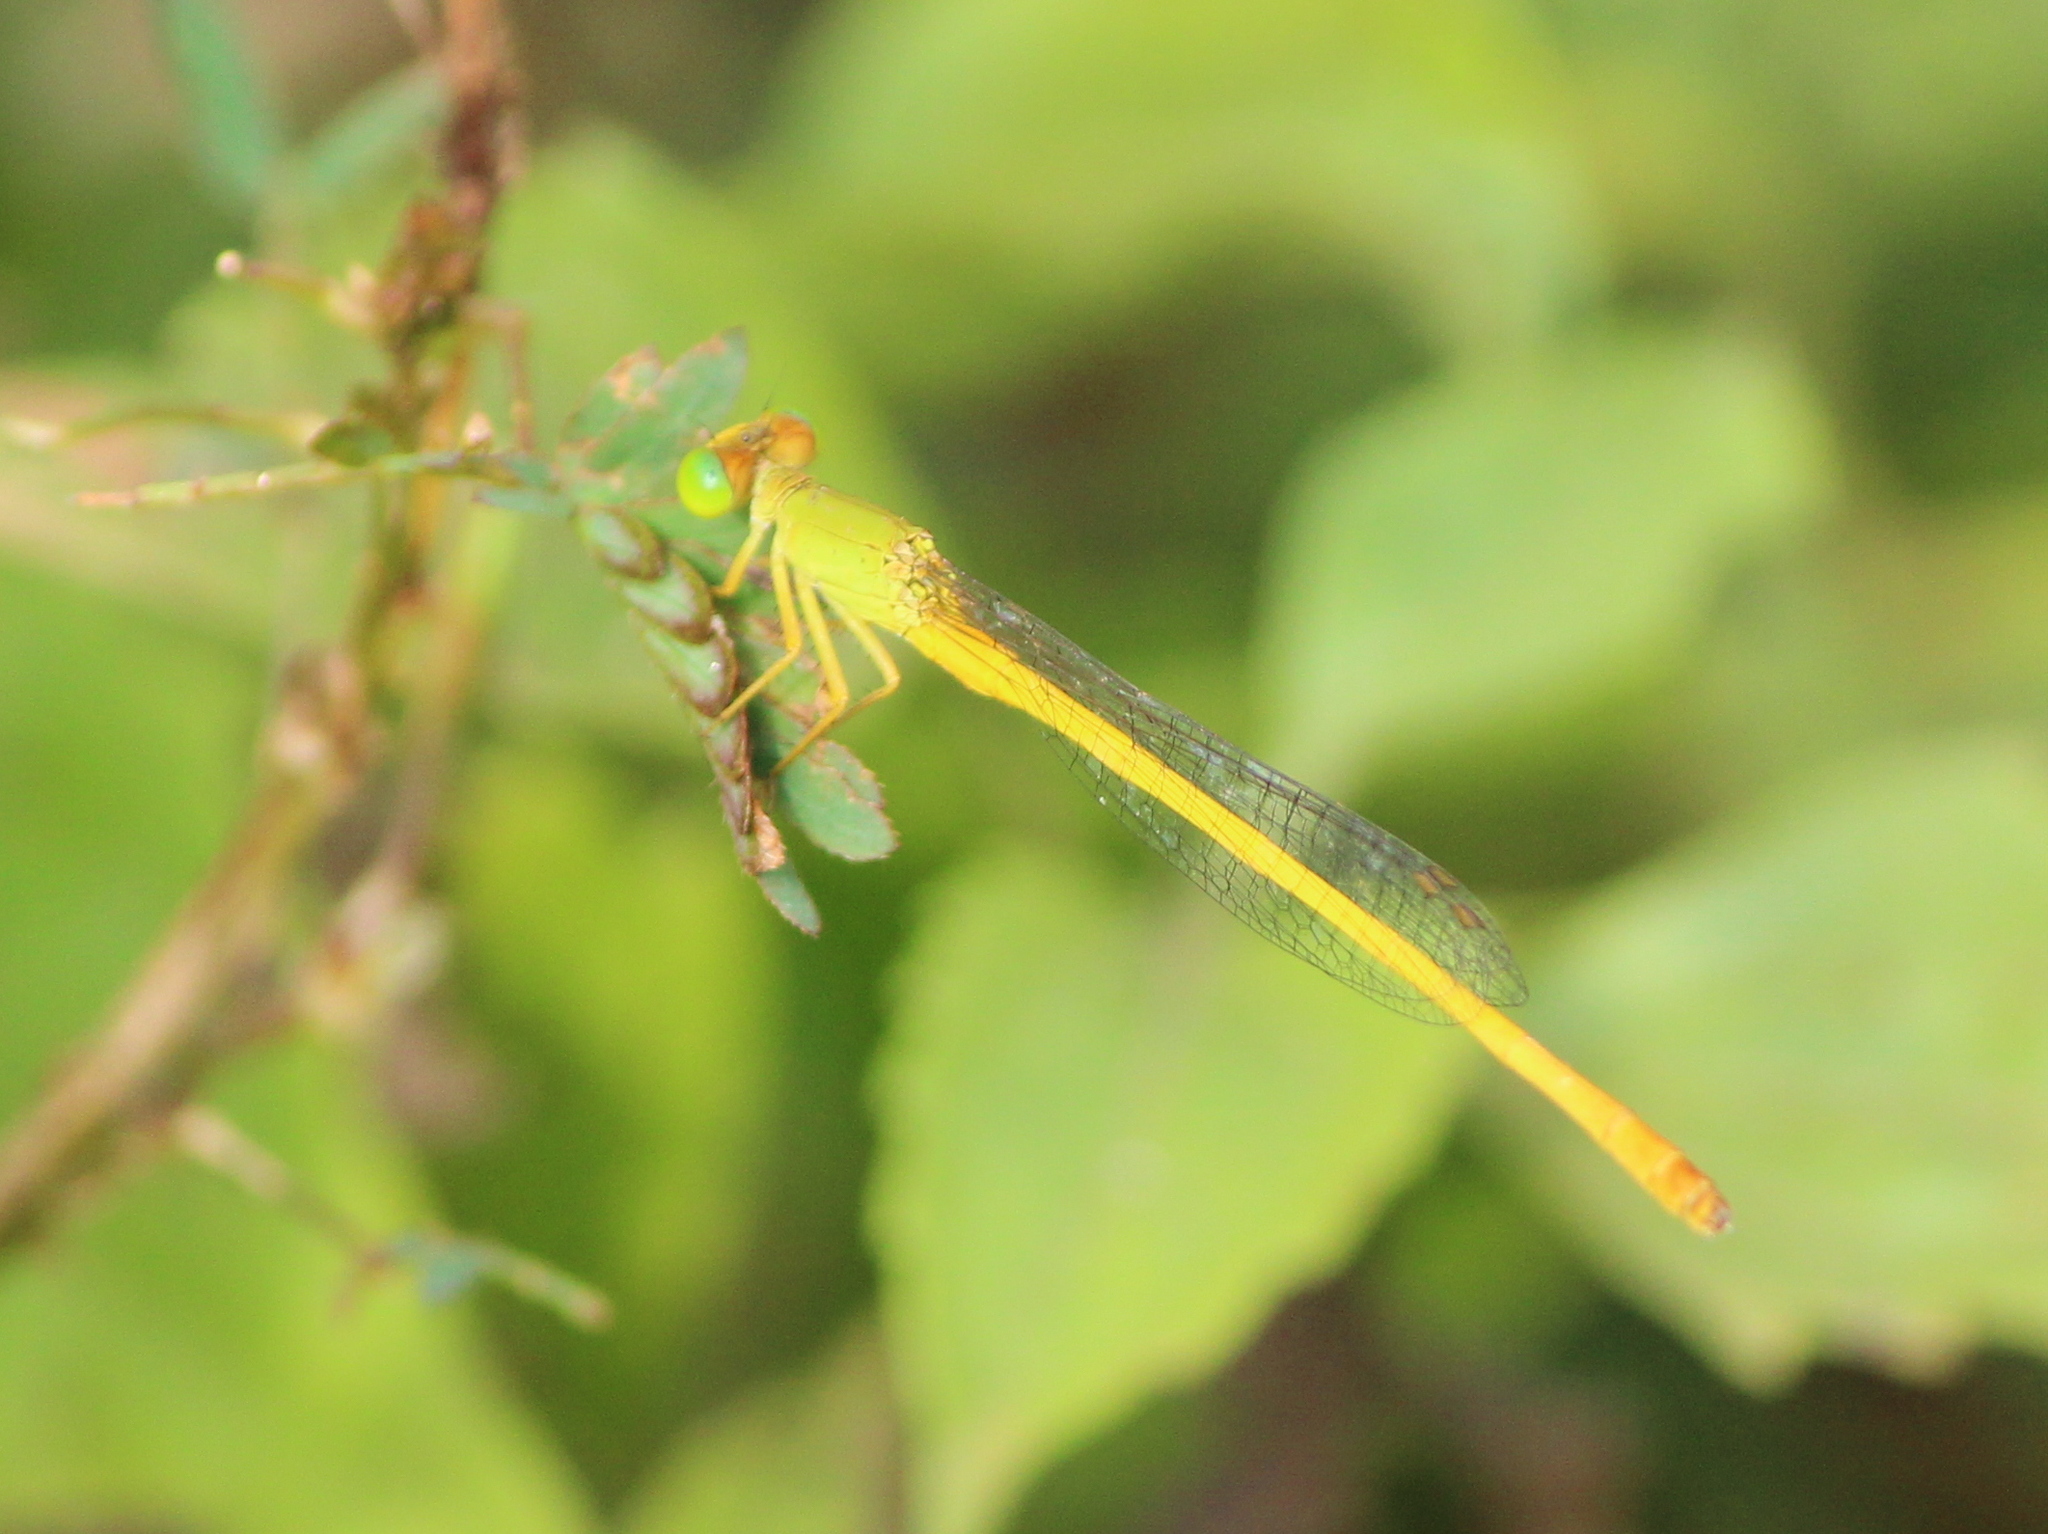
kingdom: Animalia
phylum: Arthropoda
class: Insecta
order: Odonata
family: Coenagrionidae
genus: Ceriagrion
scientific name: Ceriagrion coromandelianum
